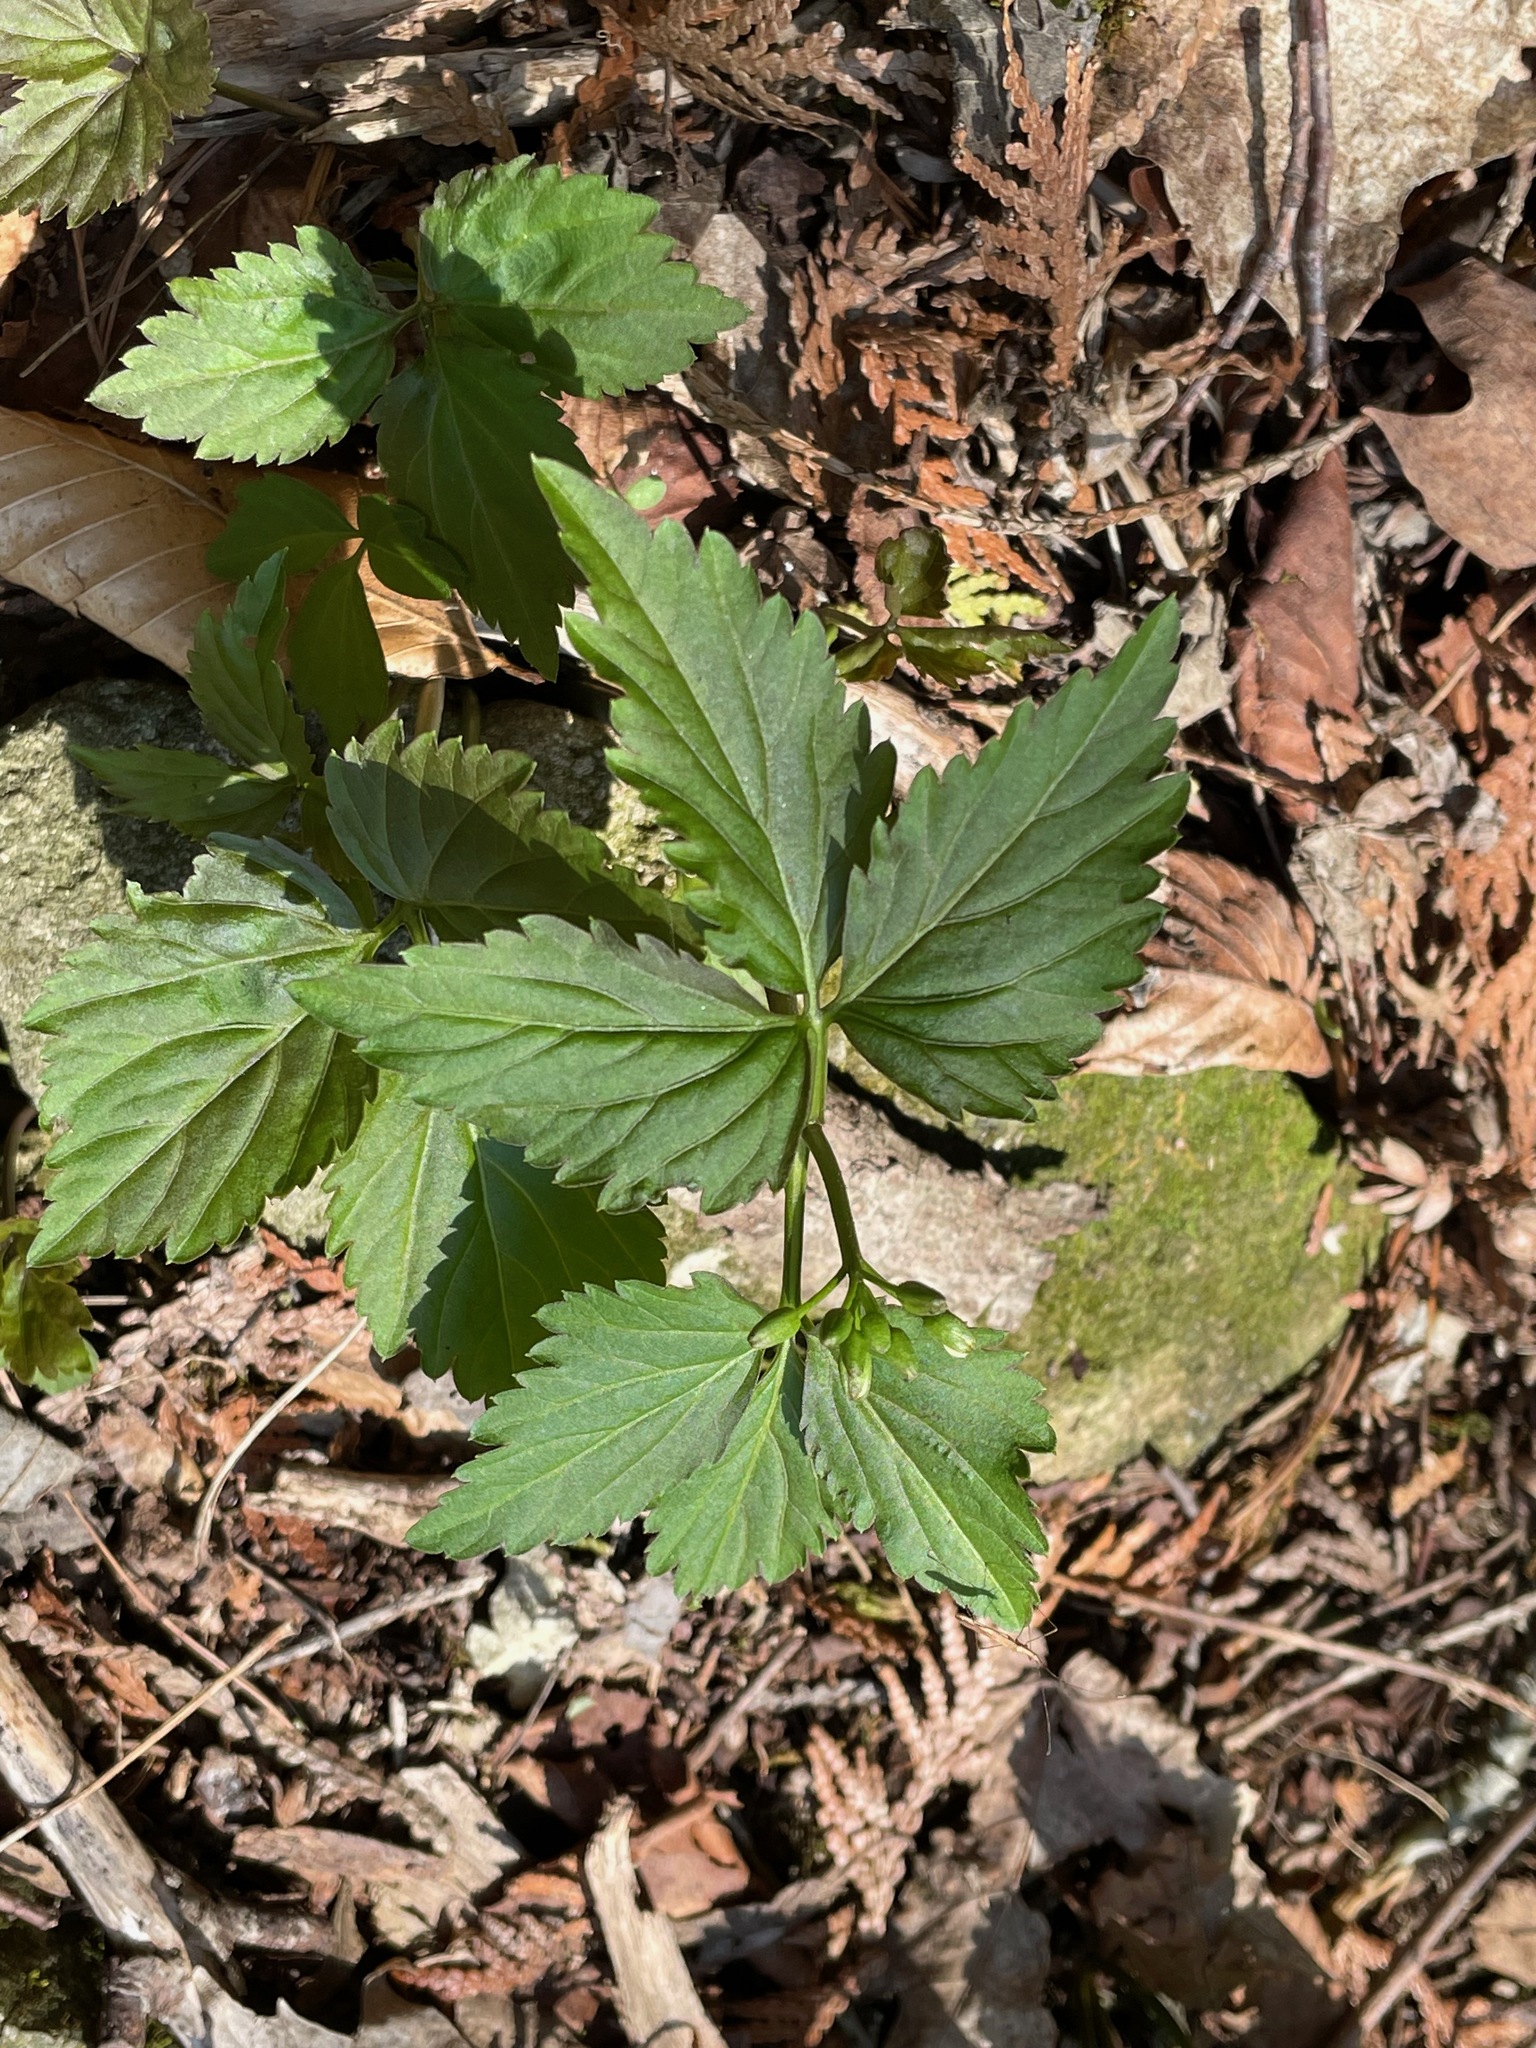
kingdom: Plantae
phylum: Tracheophyta
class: Magnoliopsida
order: Brassicales
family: Brassicaceae
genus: Cardamine
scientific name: Cardamine diphylla
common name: Broad-leaved toothwort
